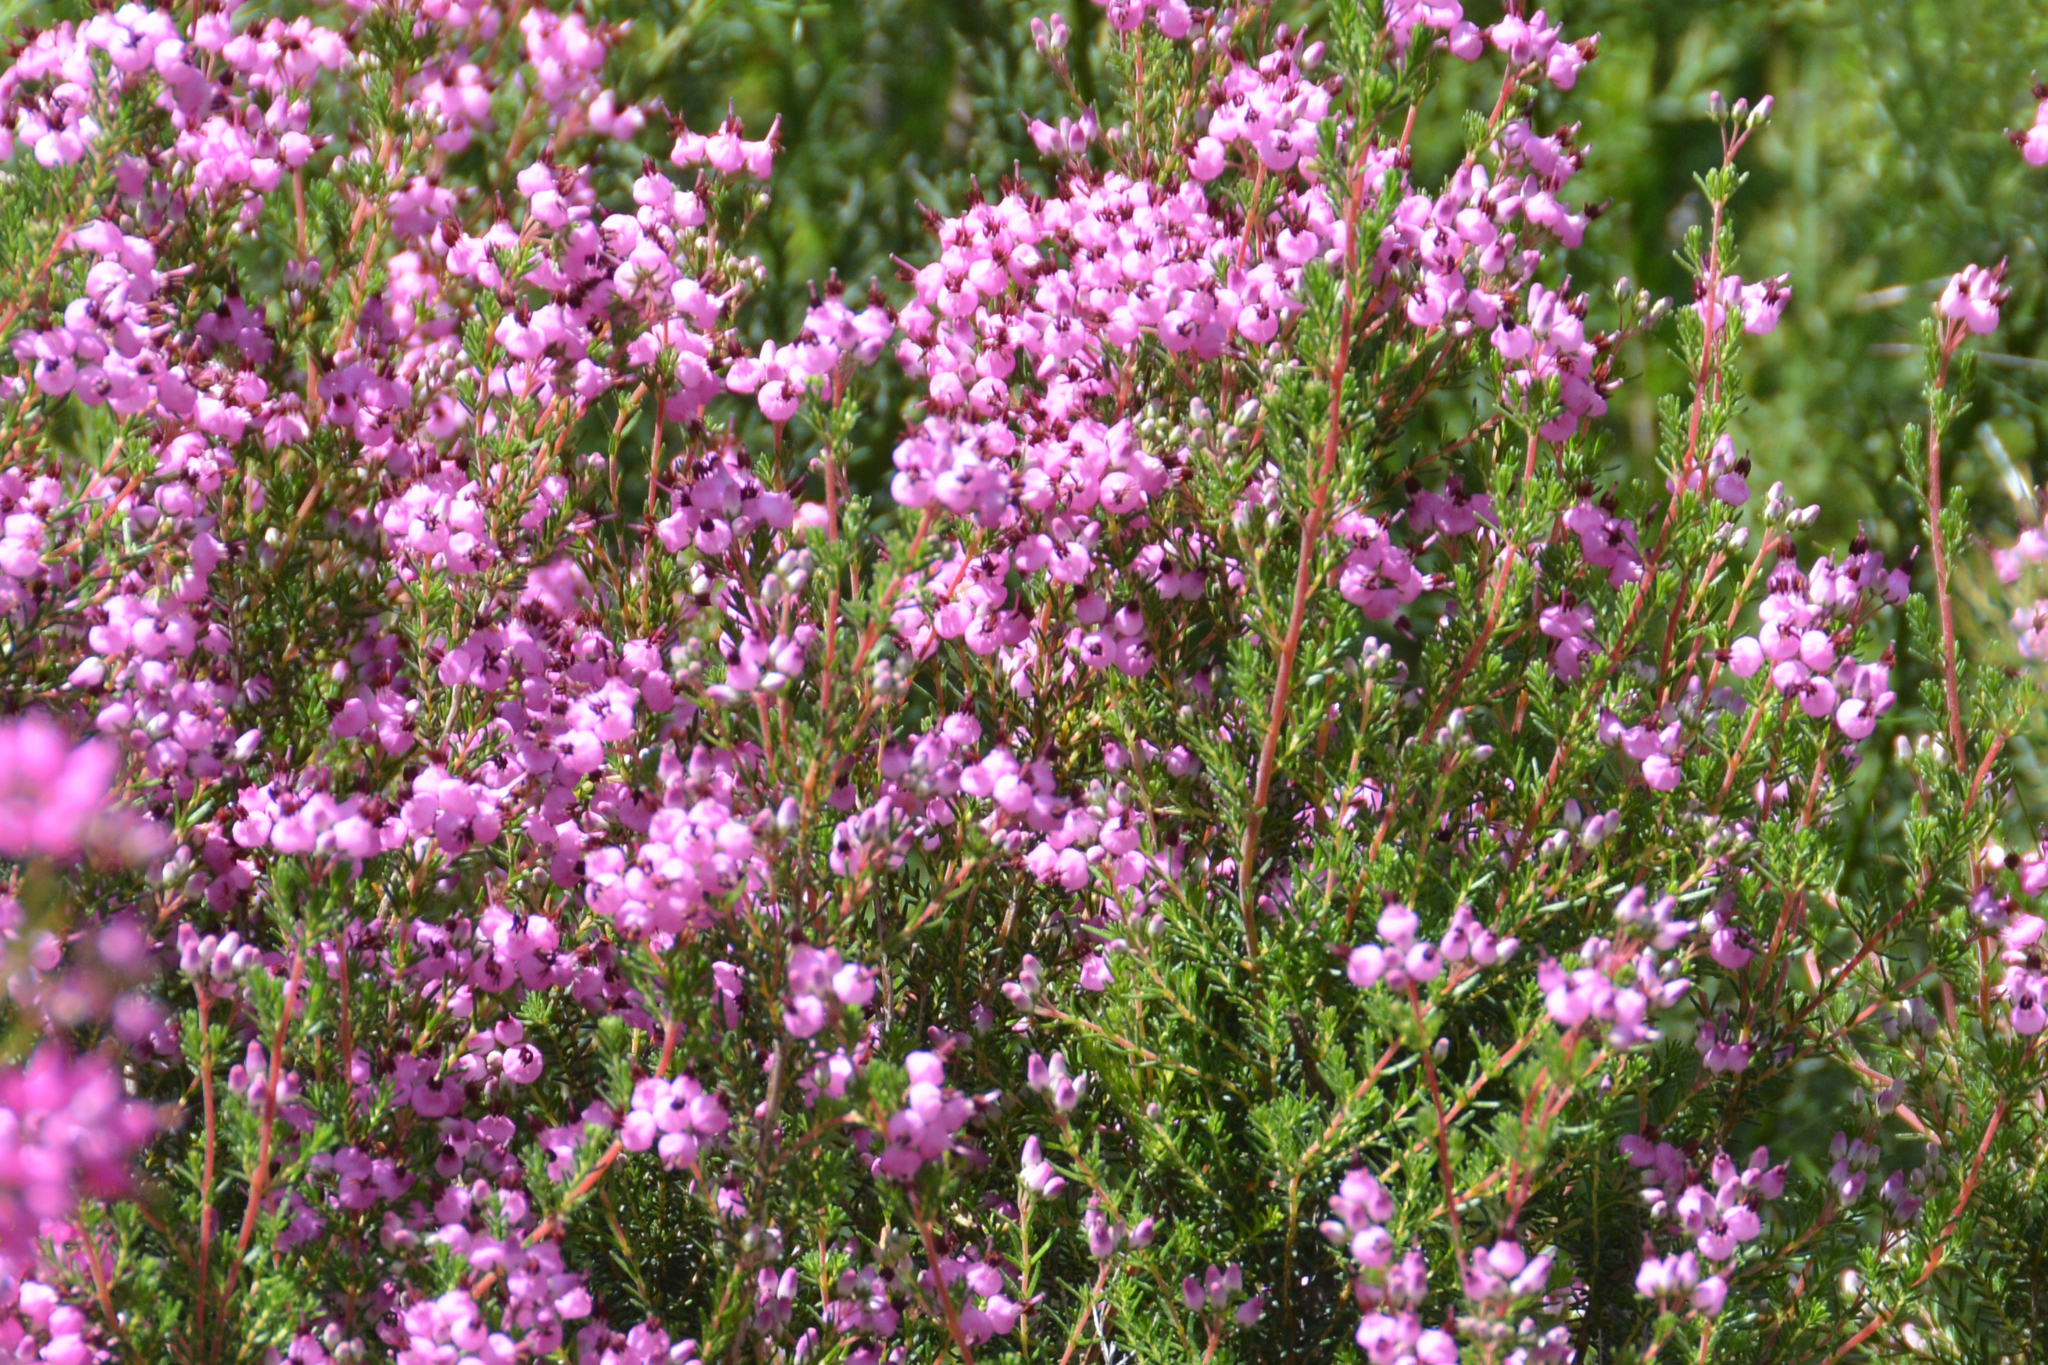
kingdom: Plantae
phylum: Tracheophyta
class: Magnoliopsida
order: Ericales
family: Ericaceae
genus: Erica
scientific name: Erica umbellata
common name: Dwarf spanish heath
